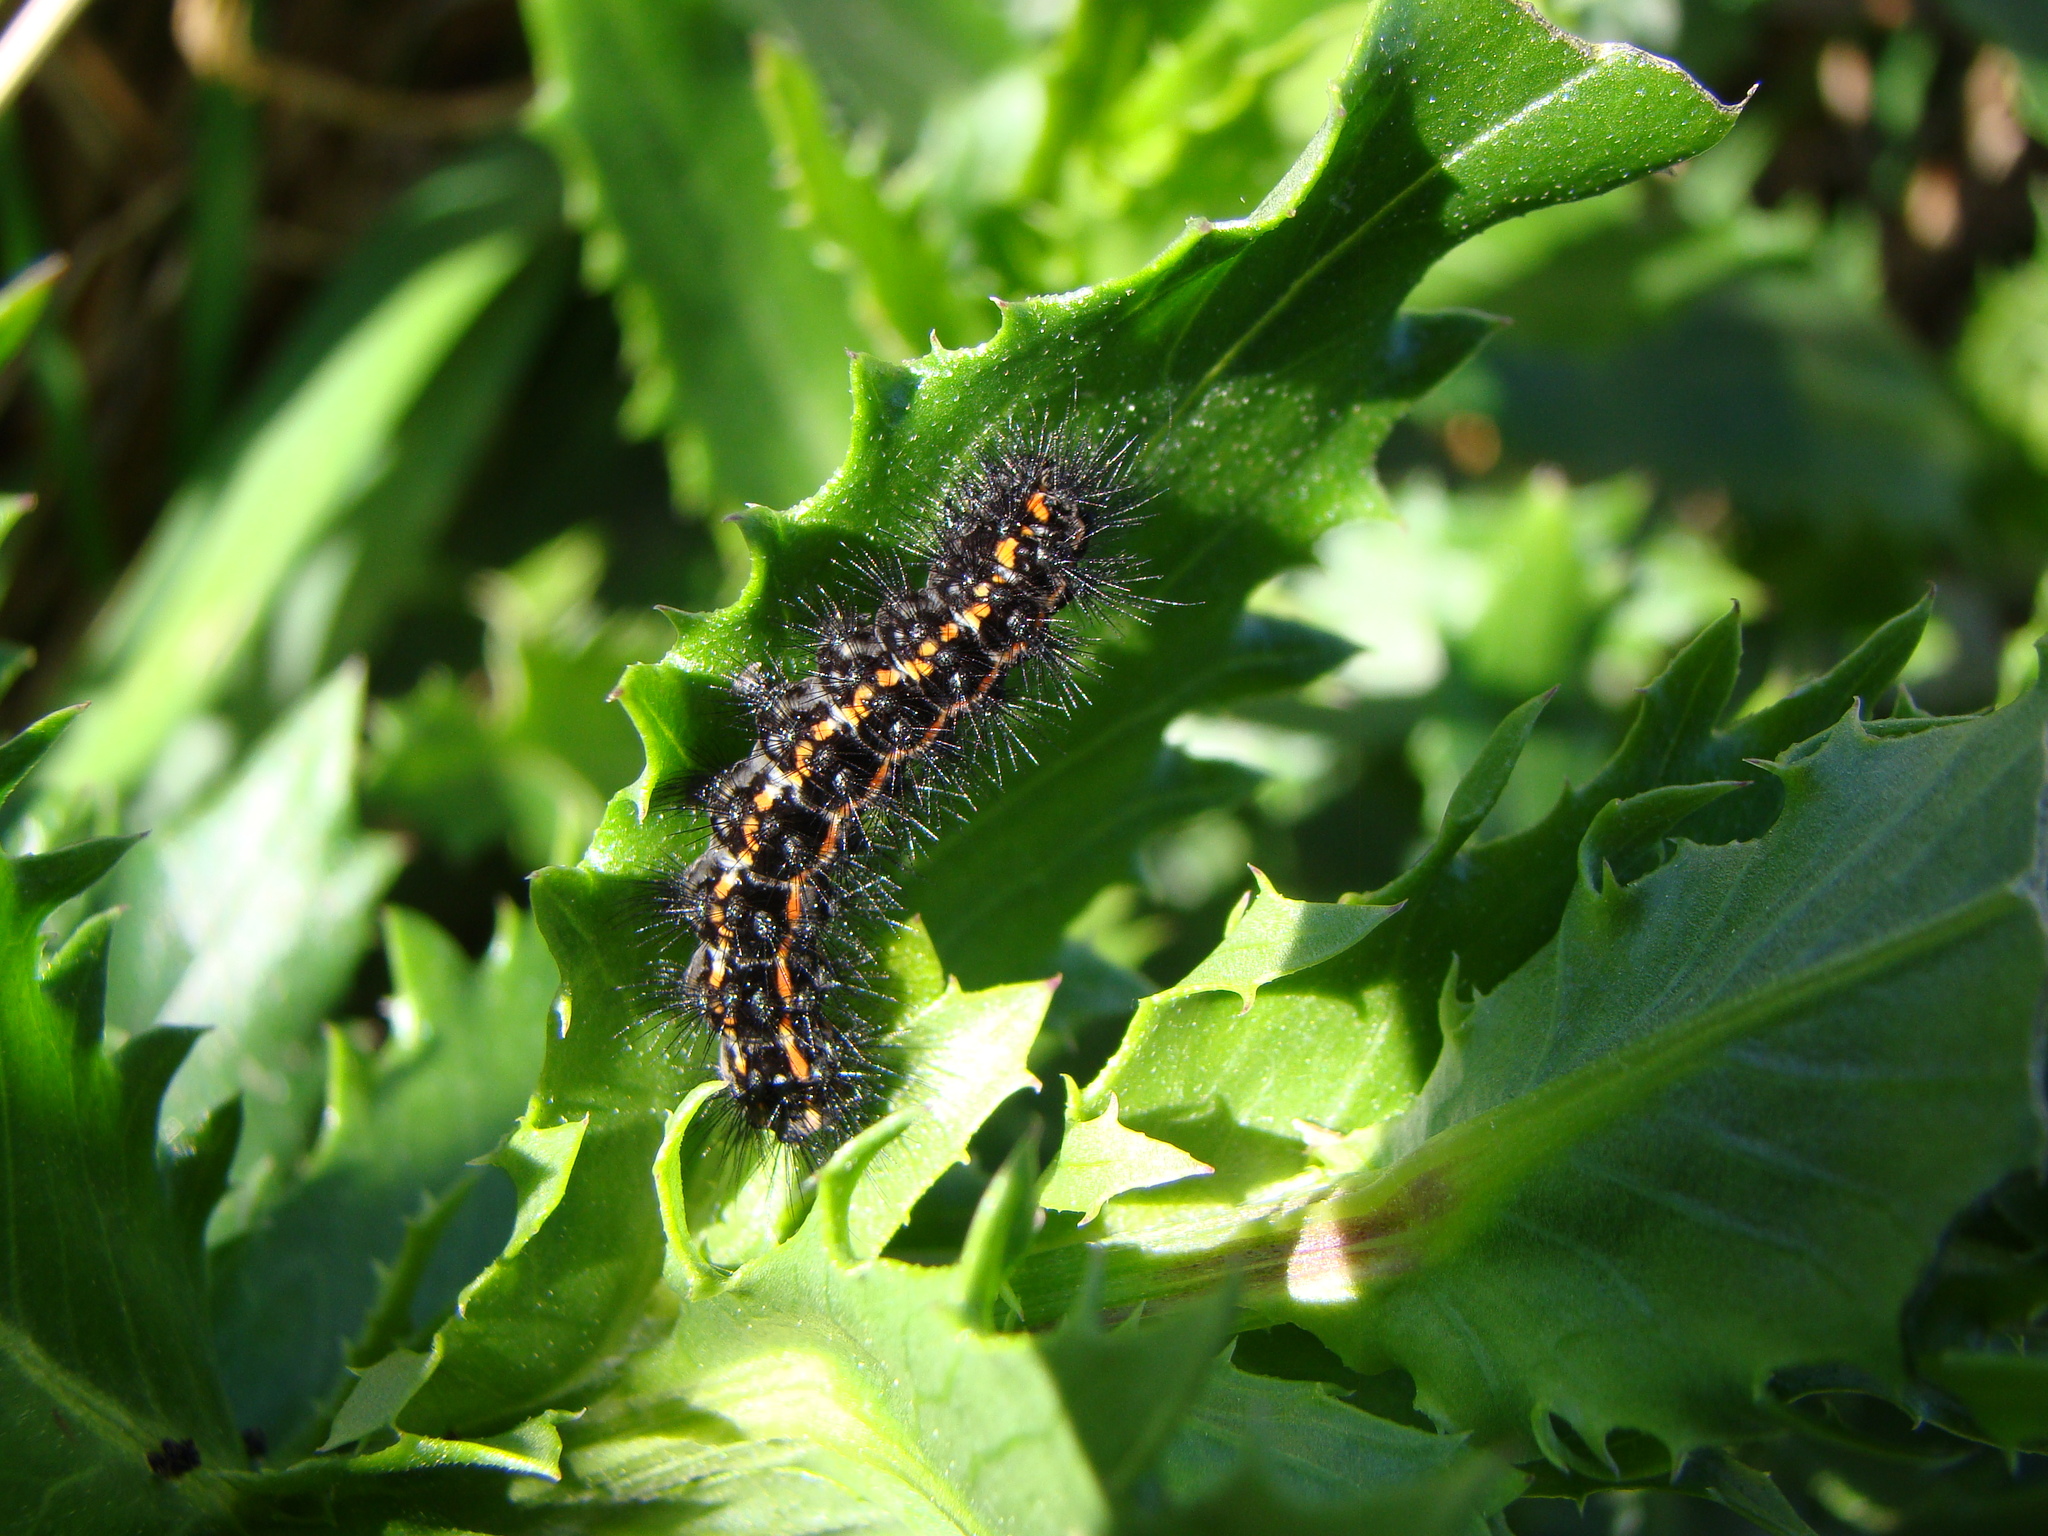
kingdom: Animalia
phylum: Arthropoda
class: Insecta
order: Lepidoptera
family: Erebidae
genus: Nyctemera
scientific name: Nyctemera annulatum
